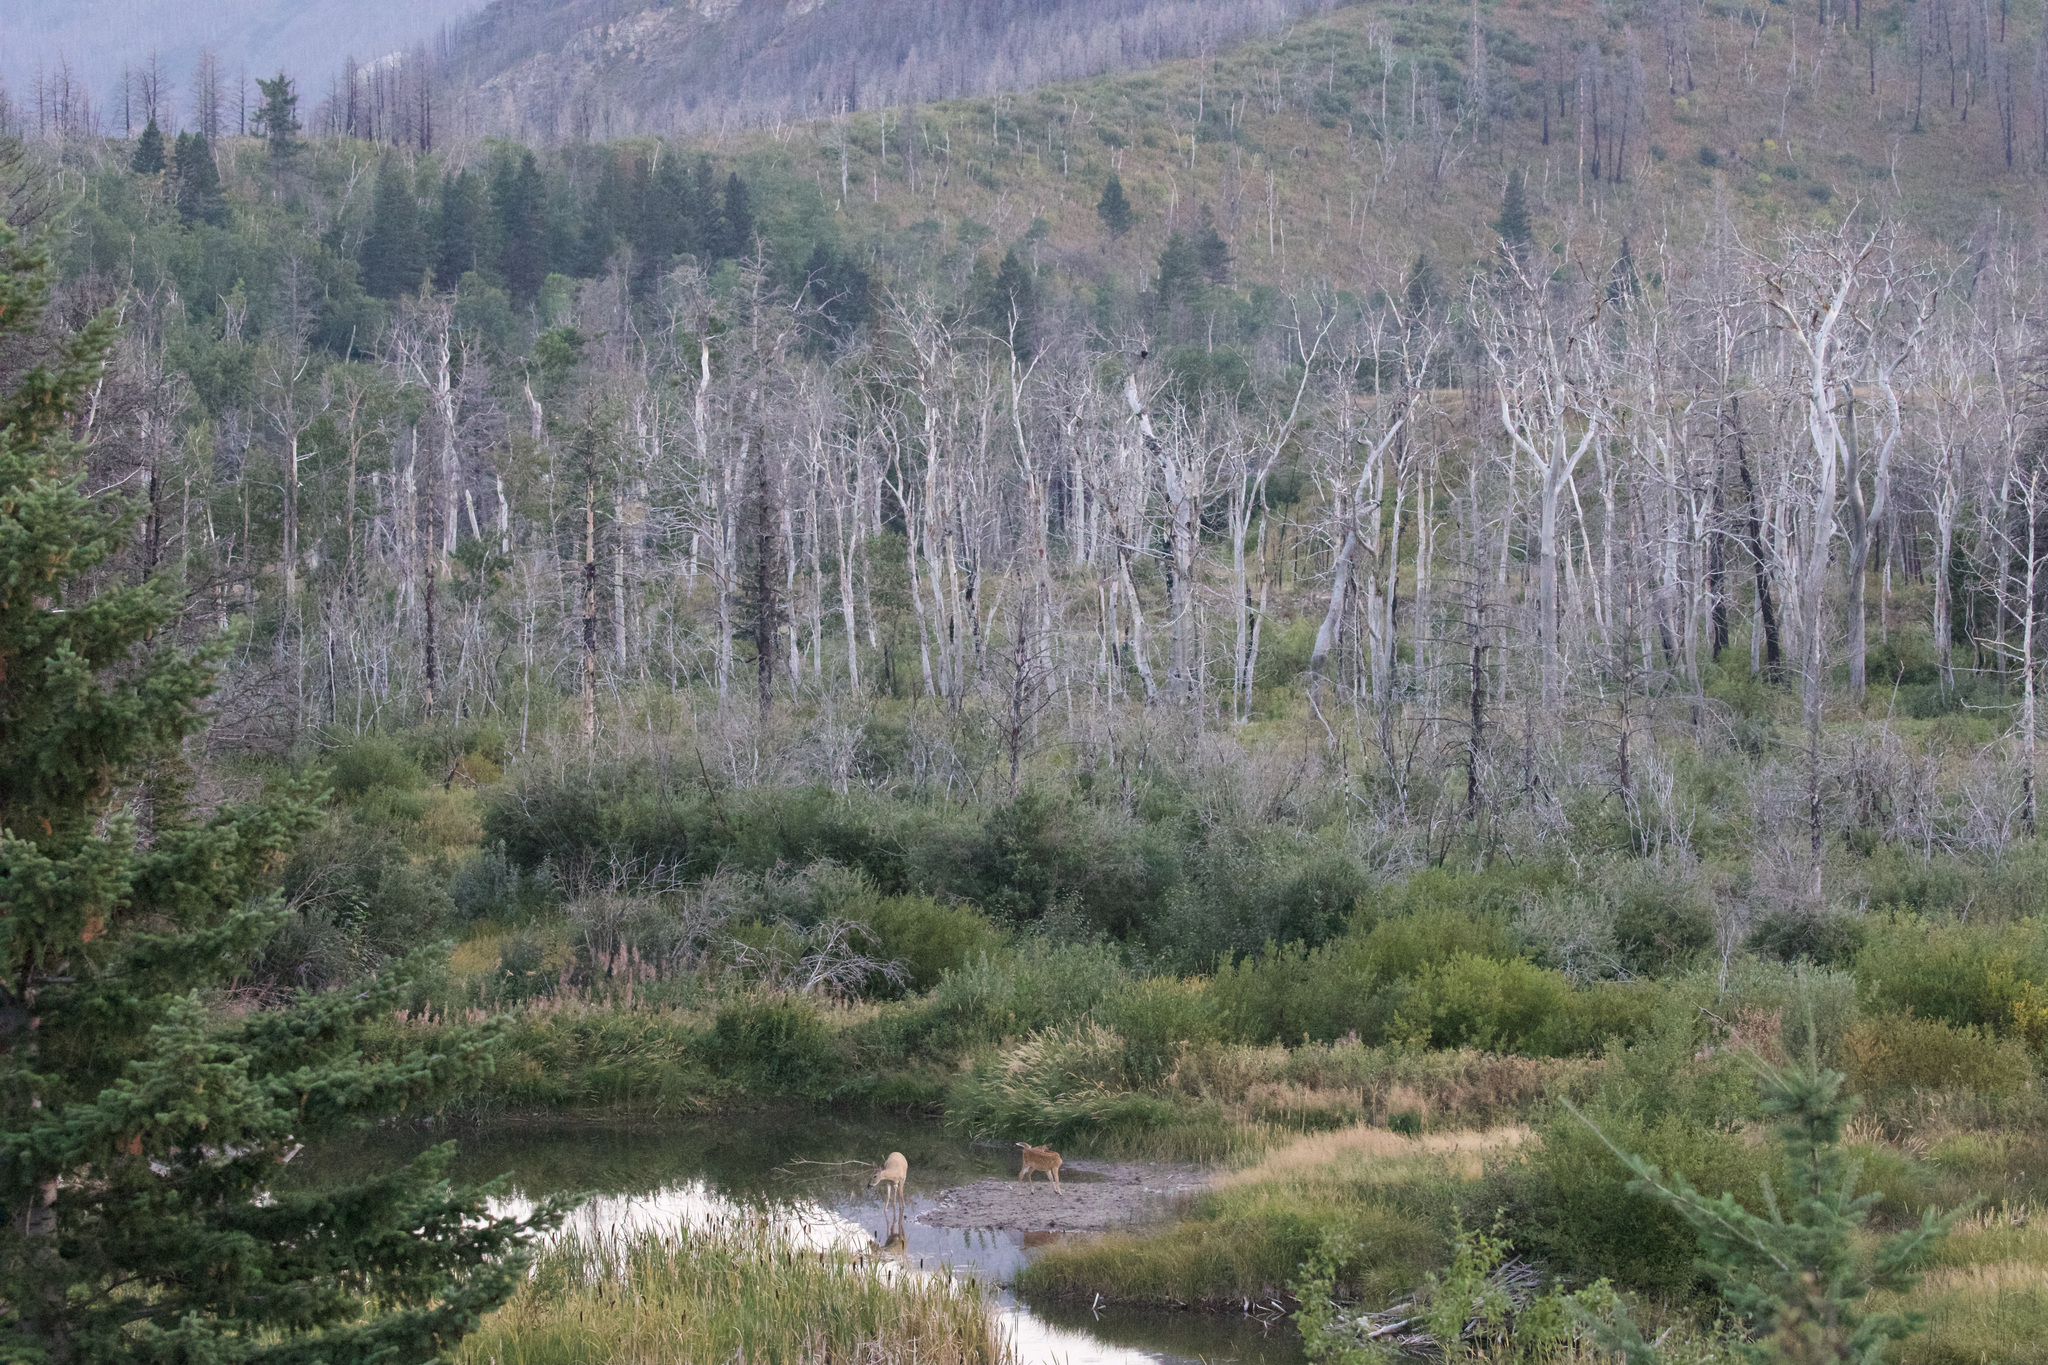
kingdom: Animalia
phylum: Chordata
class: Mammalia
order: Artiodactyla
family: Cervidae
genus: Odocoileus
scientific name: Odocoileus virginianus
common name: White-tailed deer
